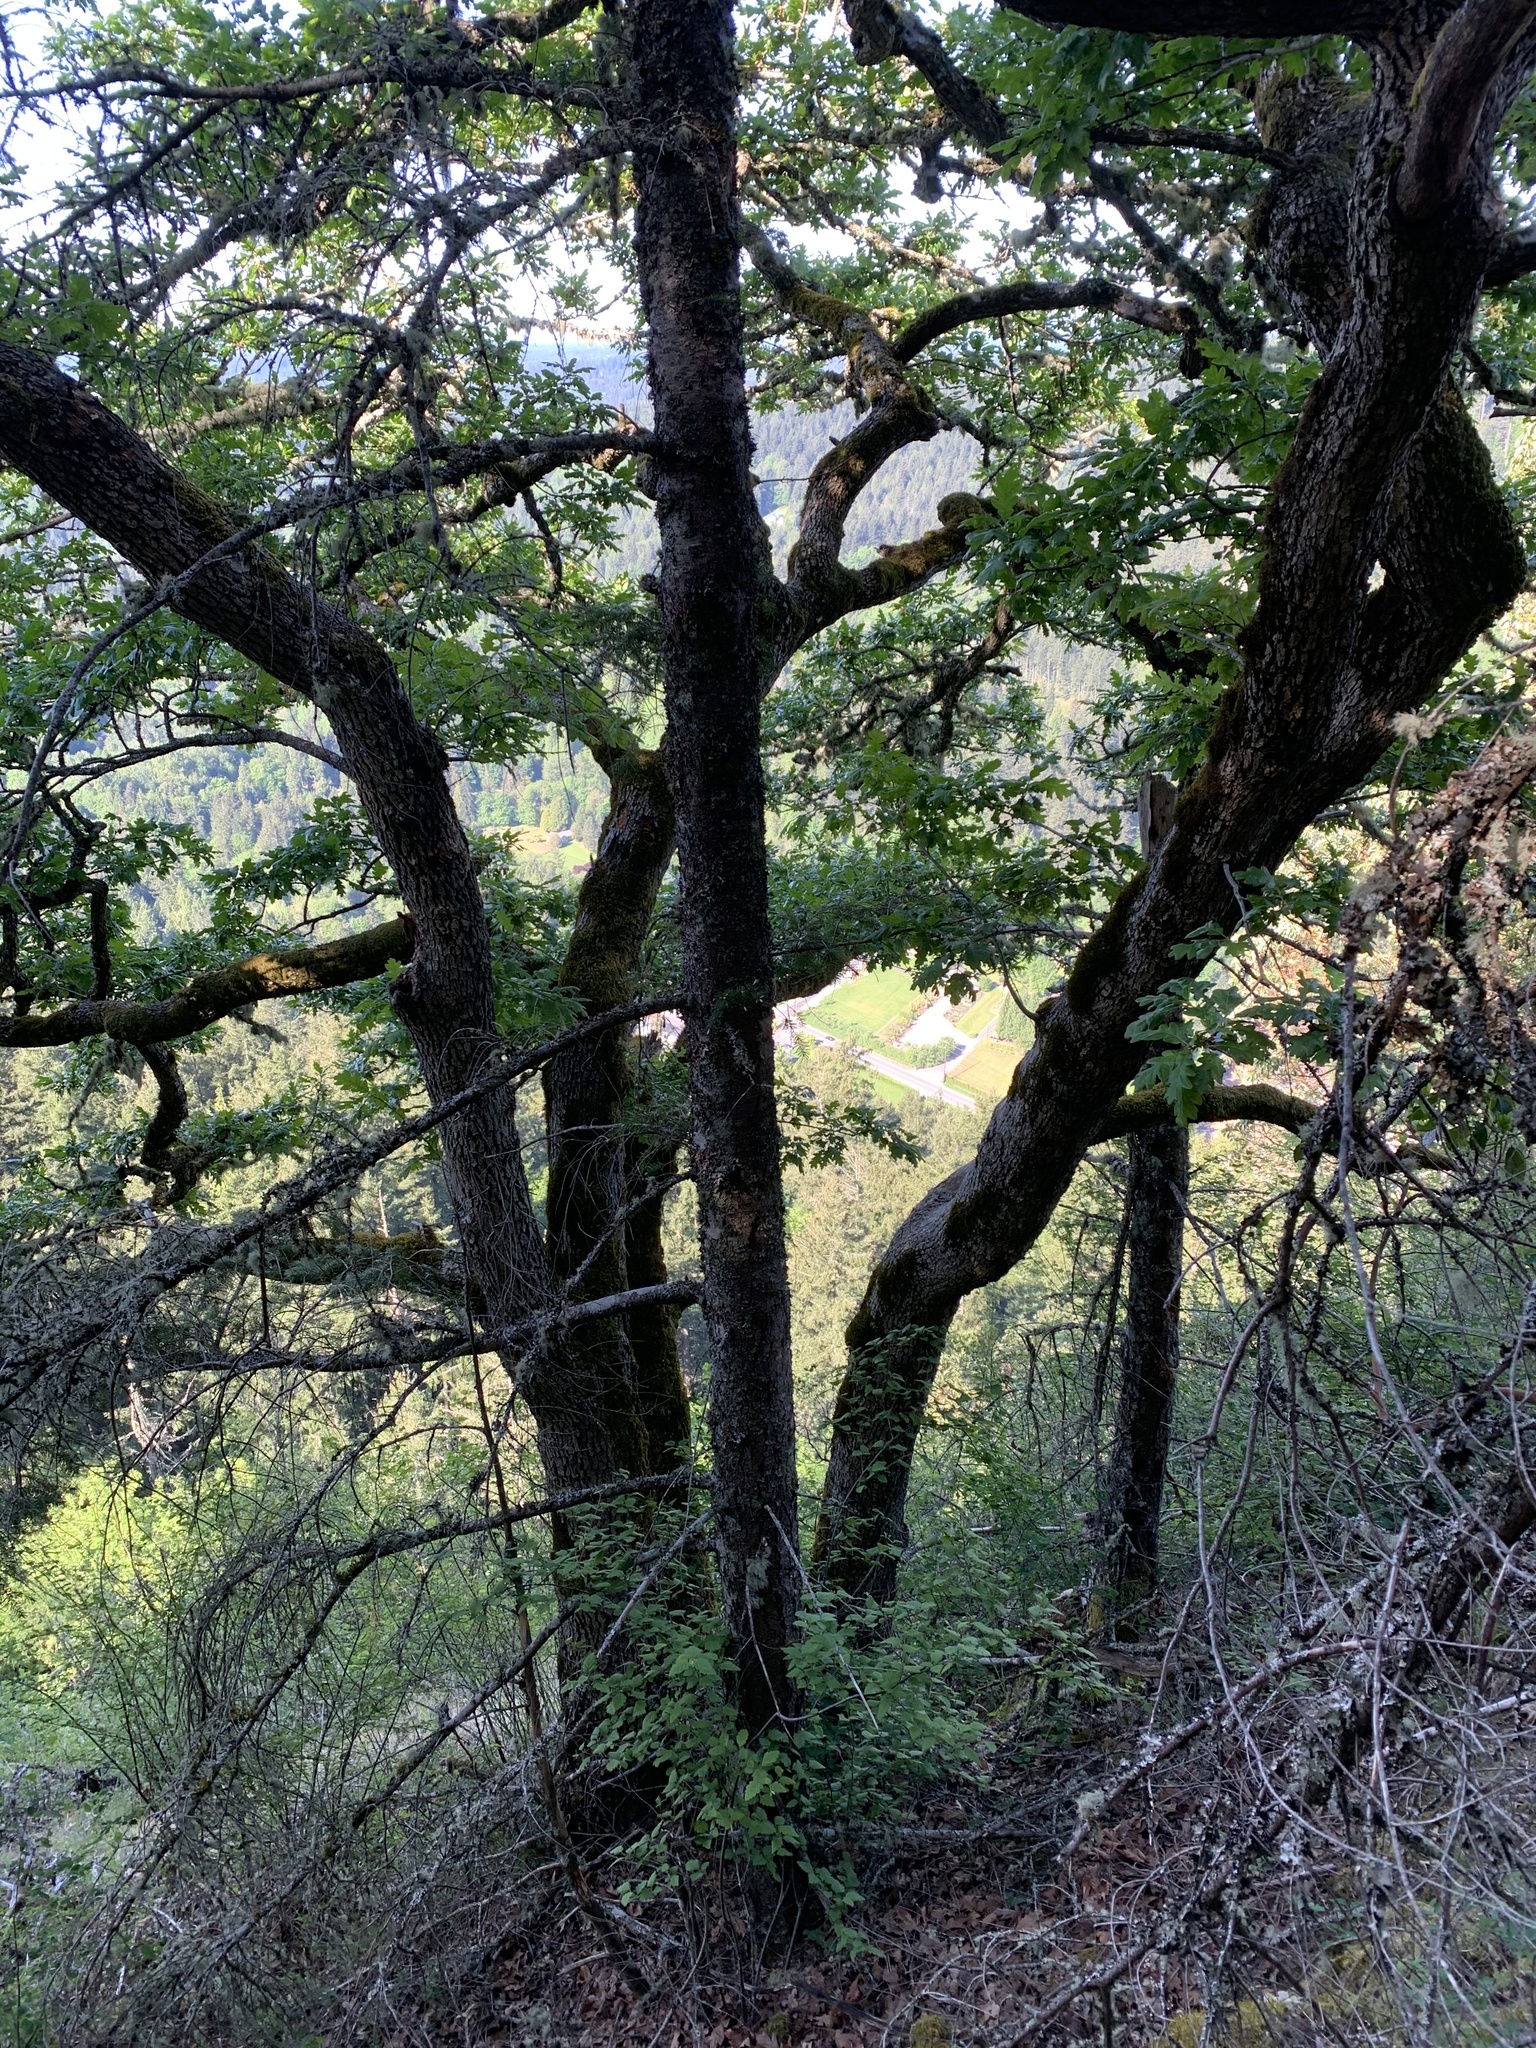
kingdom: Plantae
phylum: Tracheophyta
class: Magnoliopsida
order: Fagales
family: Fagaceae
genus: Quercus
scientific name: Quercus garryana
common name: Garry oak
